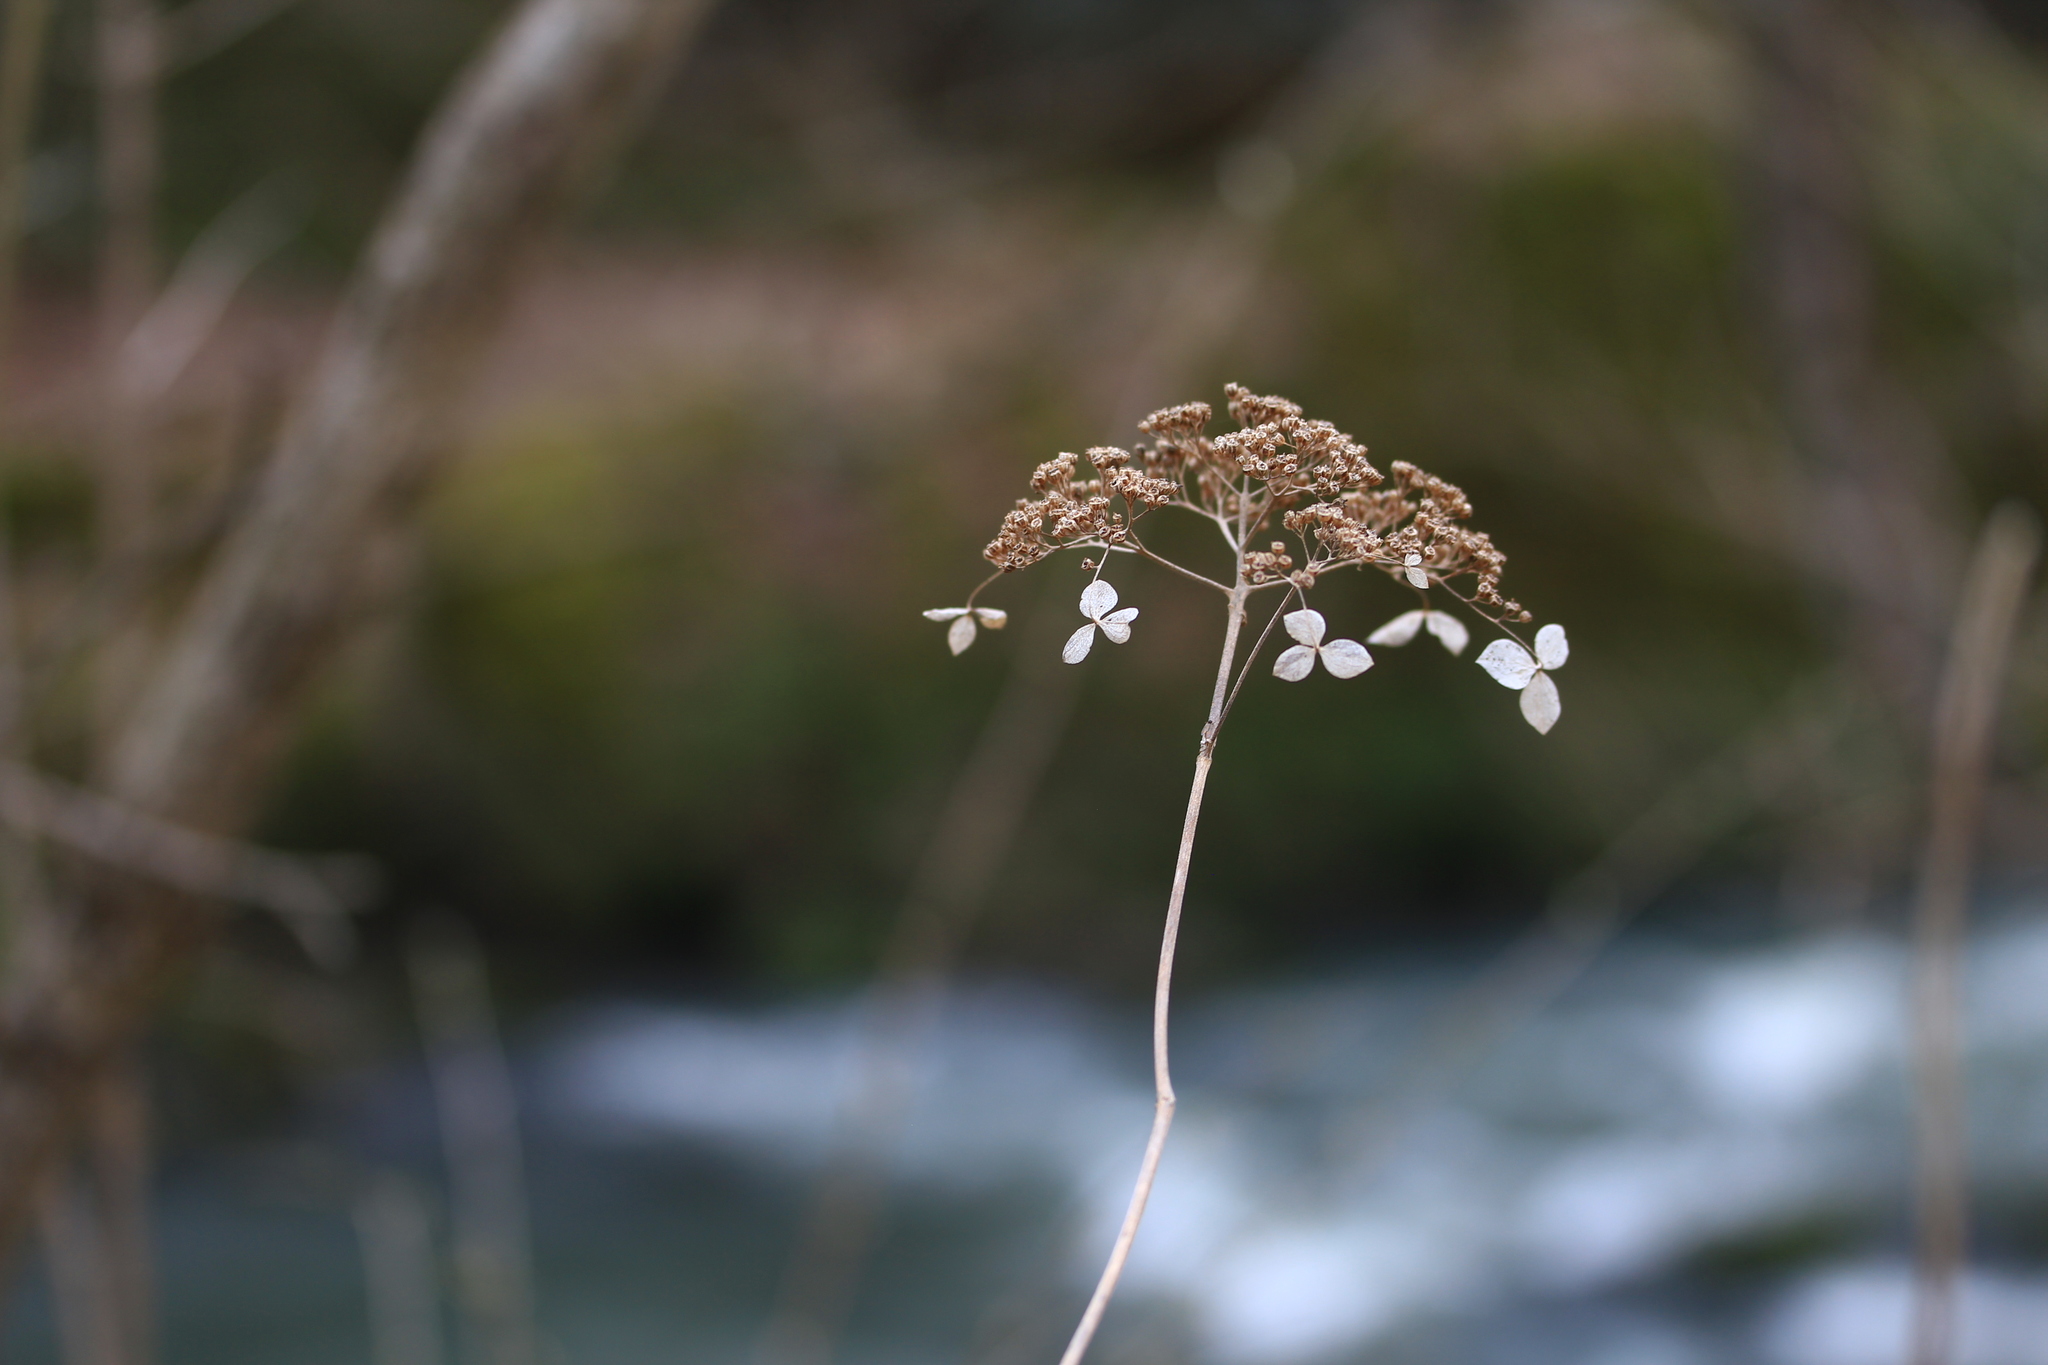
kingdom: Plantae
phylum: Tracheophyta
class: Magnoliopsida
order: Cornales
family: Hydrangeaceae
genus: Hydrangea
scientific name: Hydrangea arborescens
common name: Sevenbark
